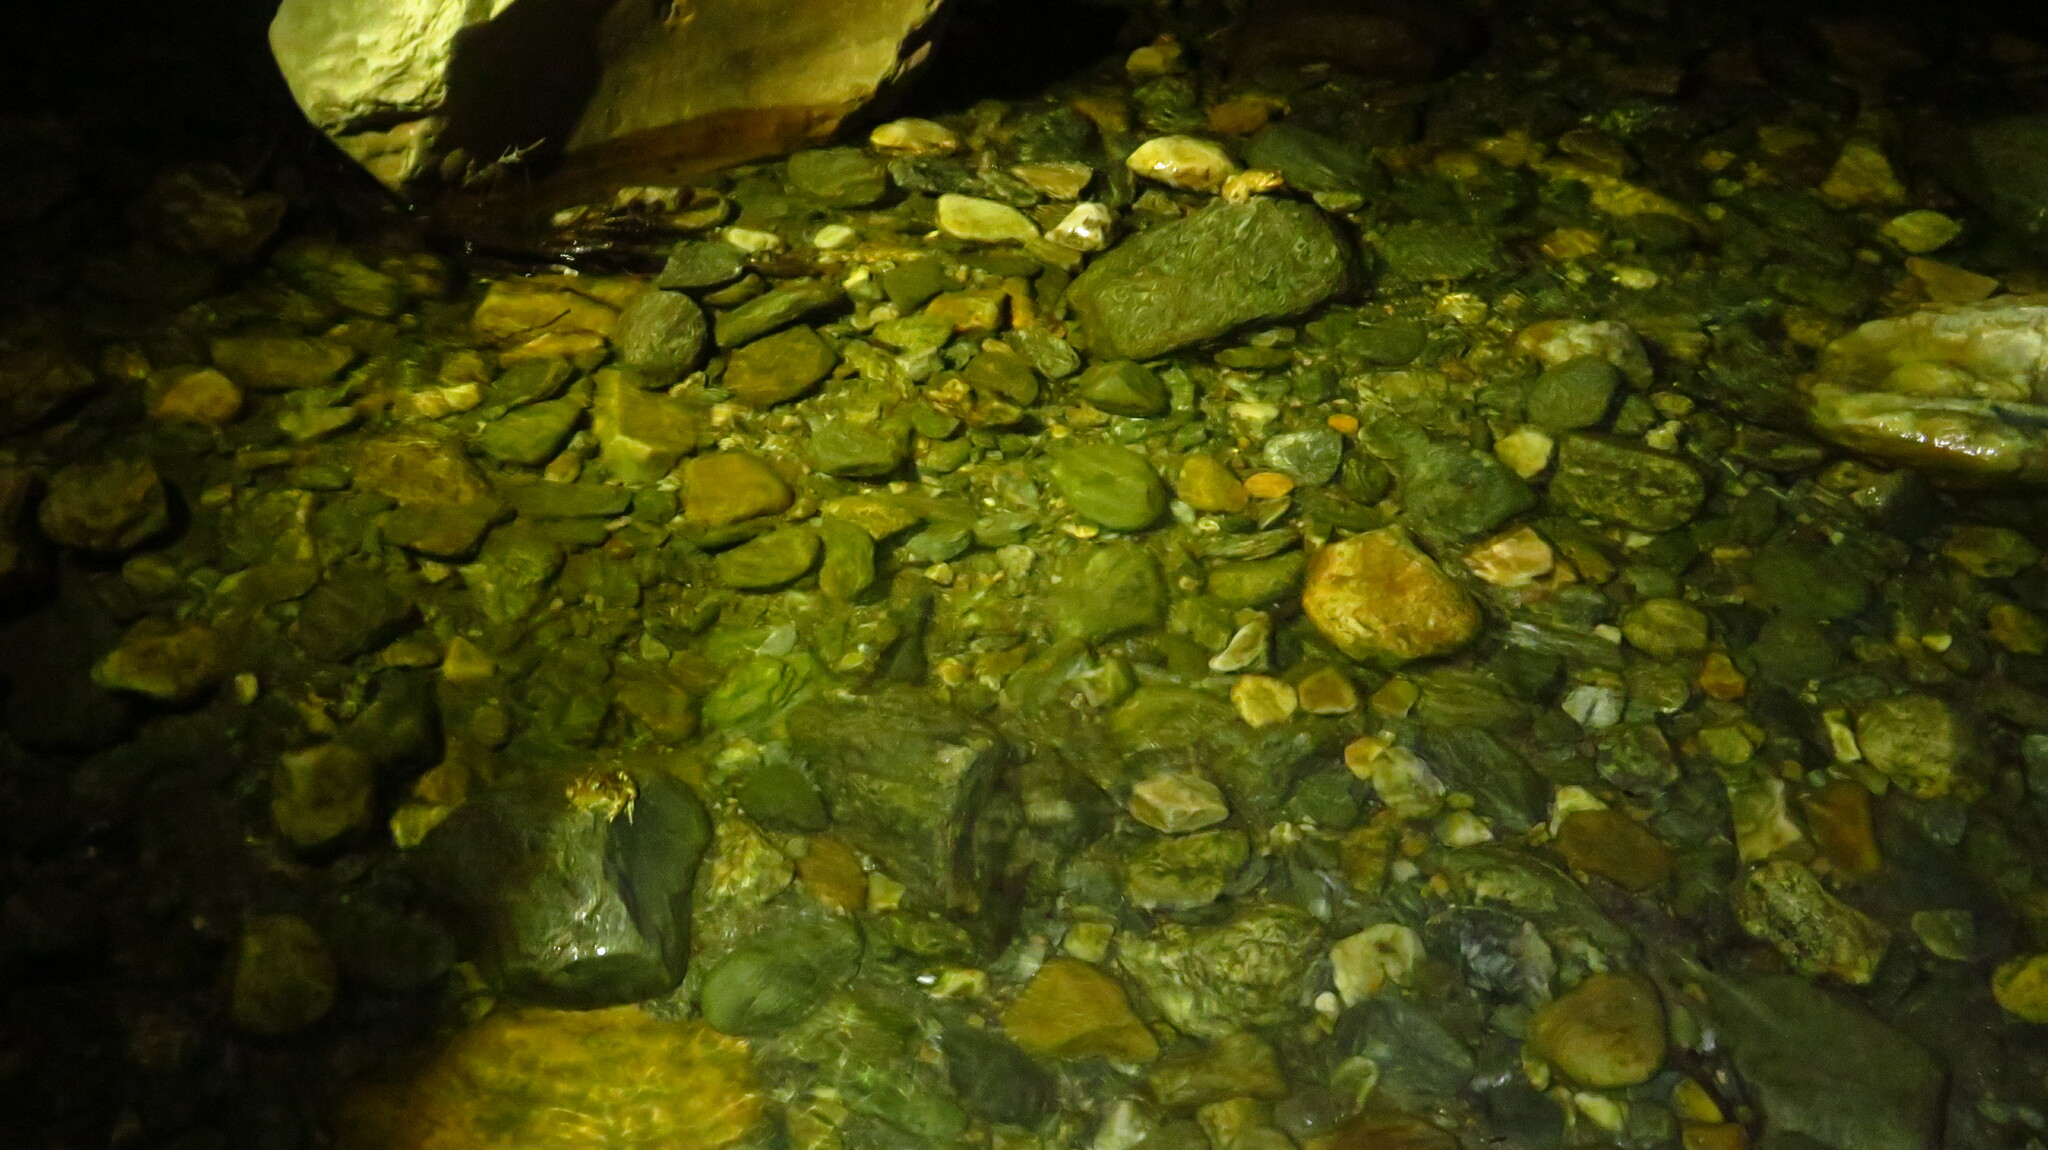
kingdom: Animalia
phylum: Chordata
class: Amphibia
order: Anura
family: Bufonidae
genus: Anaxyrus
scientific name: Anaxyrus americanus
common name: American toad
